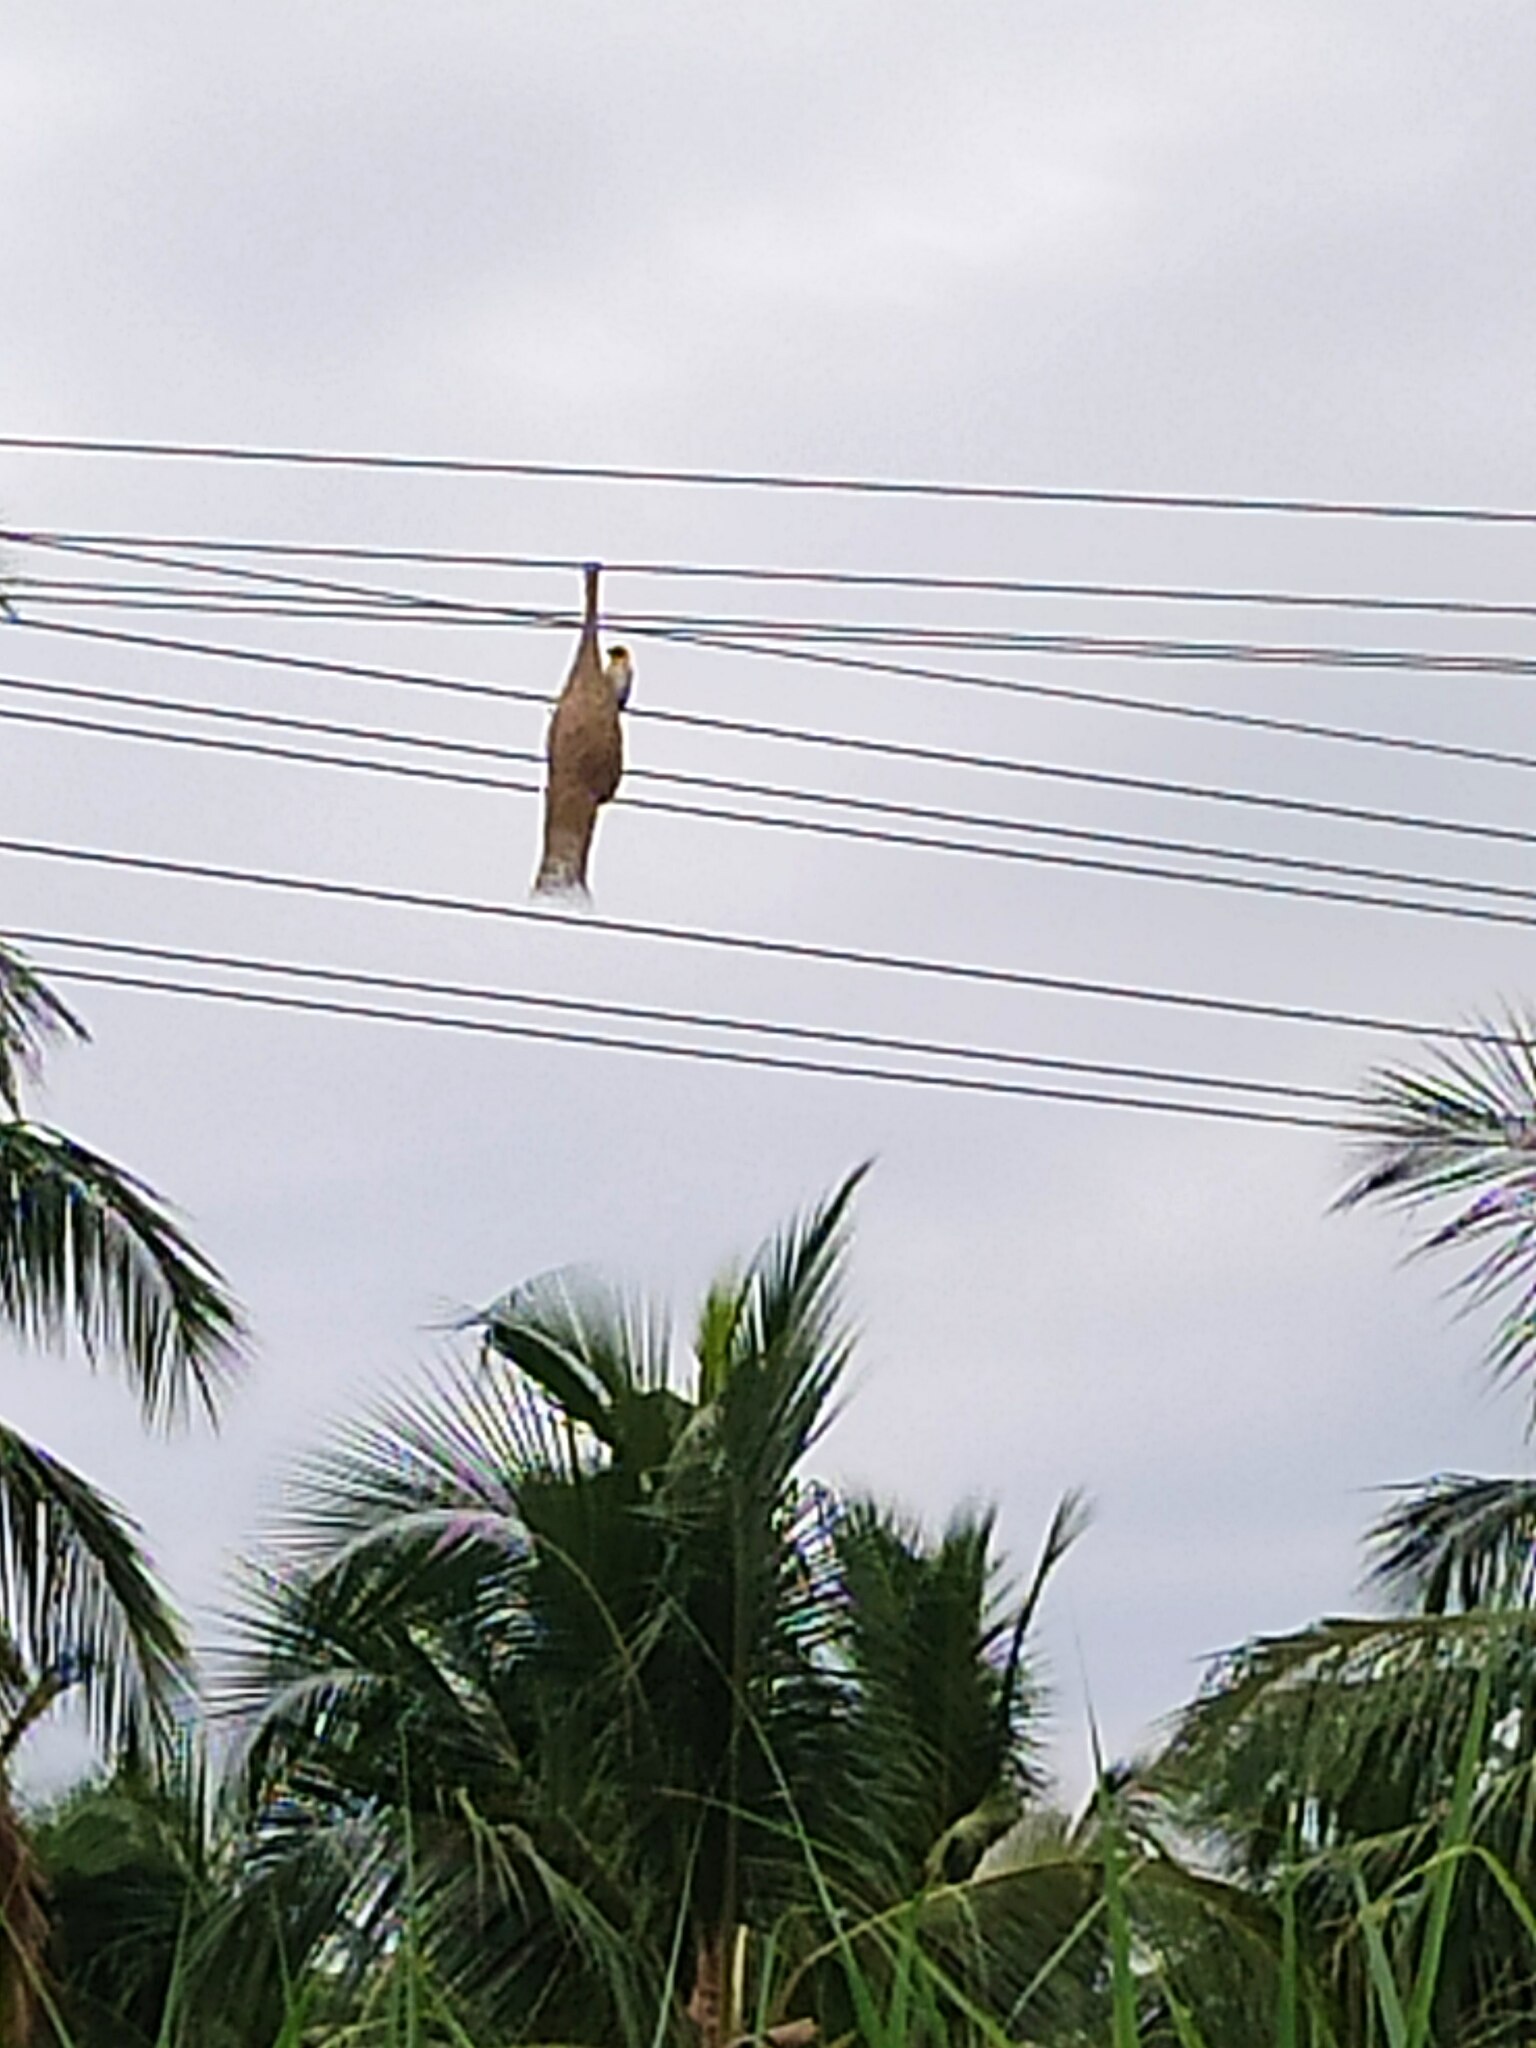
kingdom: Animalia
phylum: Chordata
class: Aves
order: Passeriformes
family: Ploceidae
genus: Ploceus
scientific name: Ploceus philippinus
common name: Baya weaver
